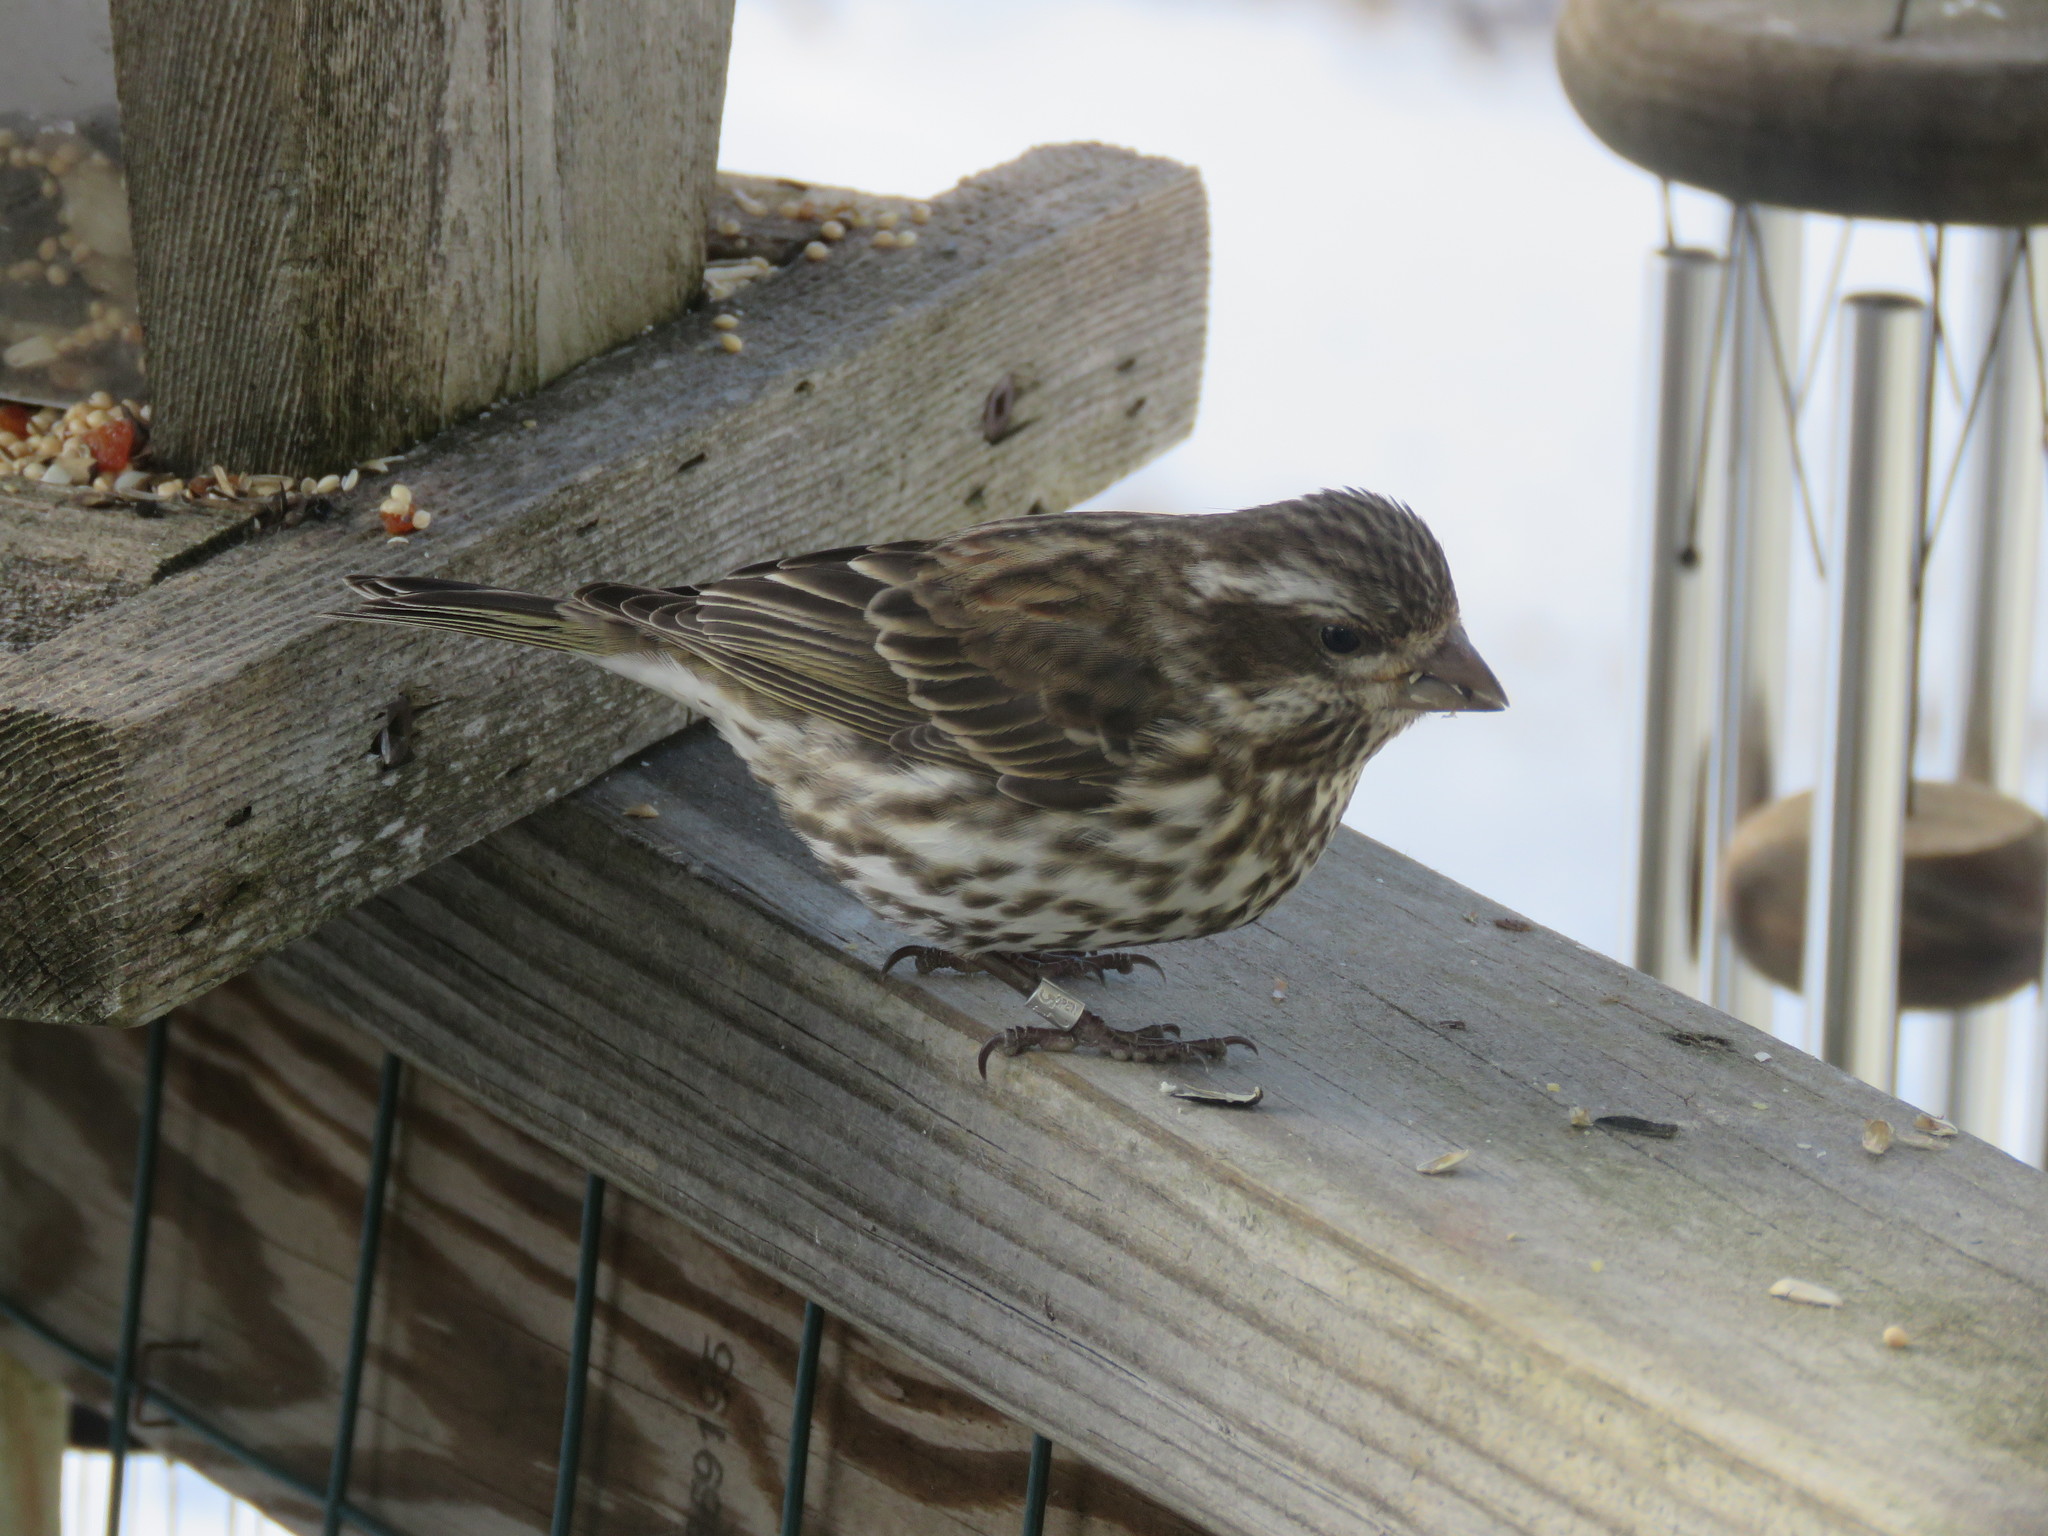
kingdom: Animalia
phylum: Chordata
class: Aves
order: Passeriformes
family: Fringillidae
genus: Haemorhous
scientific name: Haemorhous purpureus
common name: Purple finch
